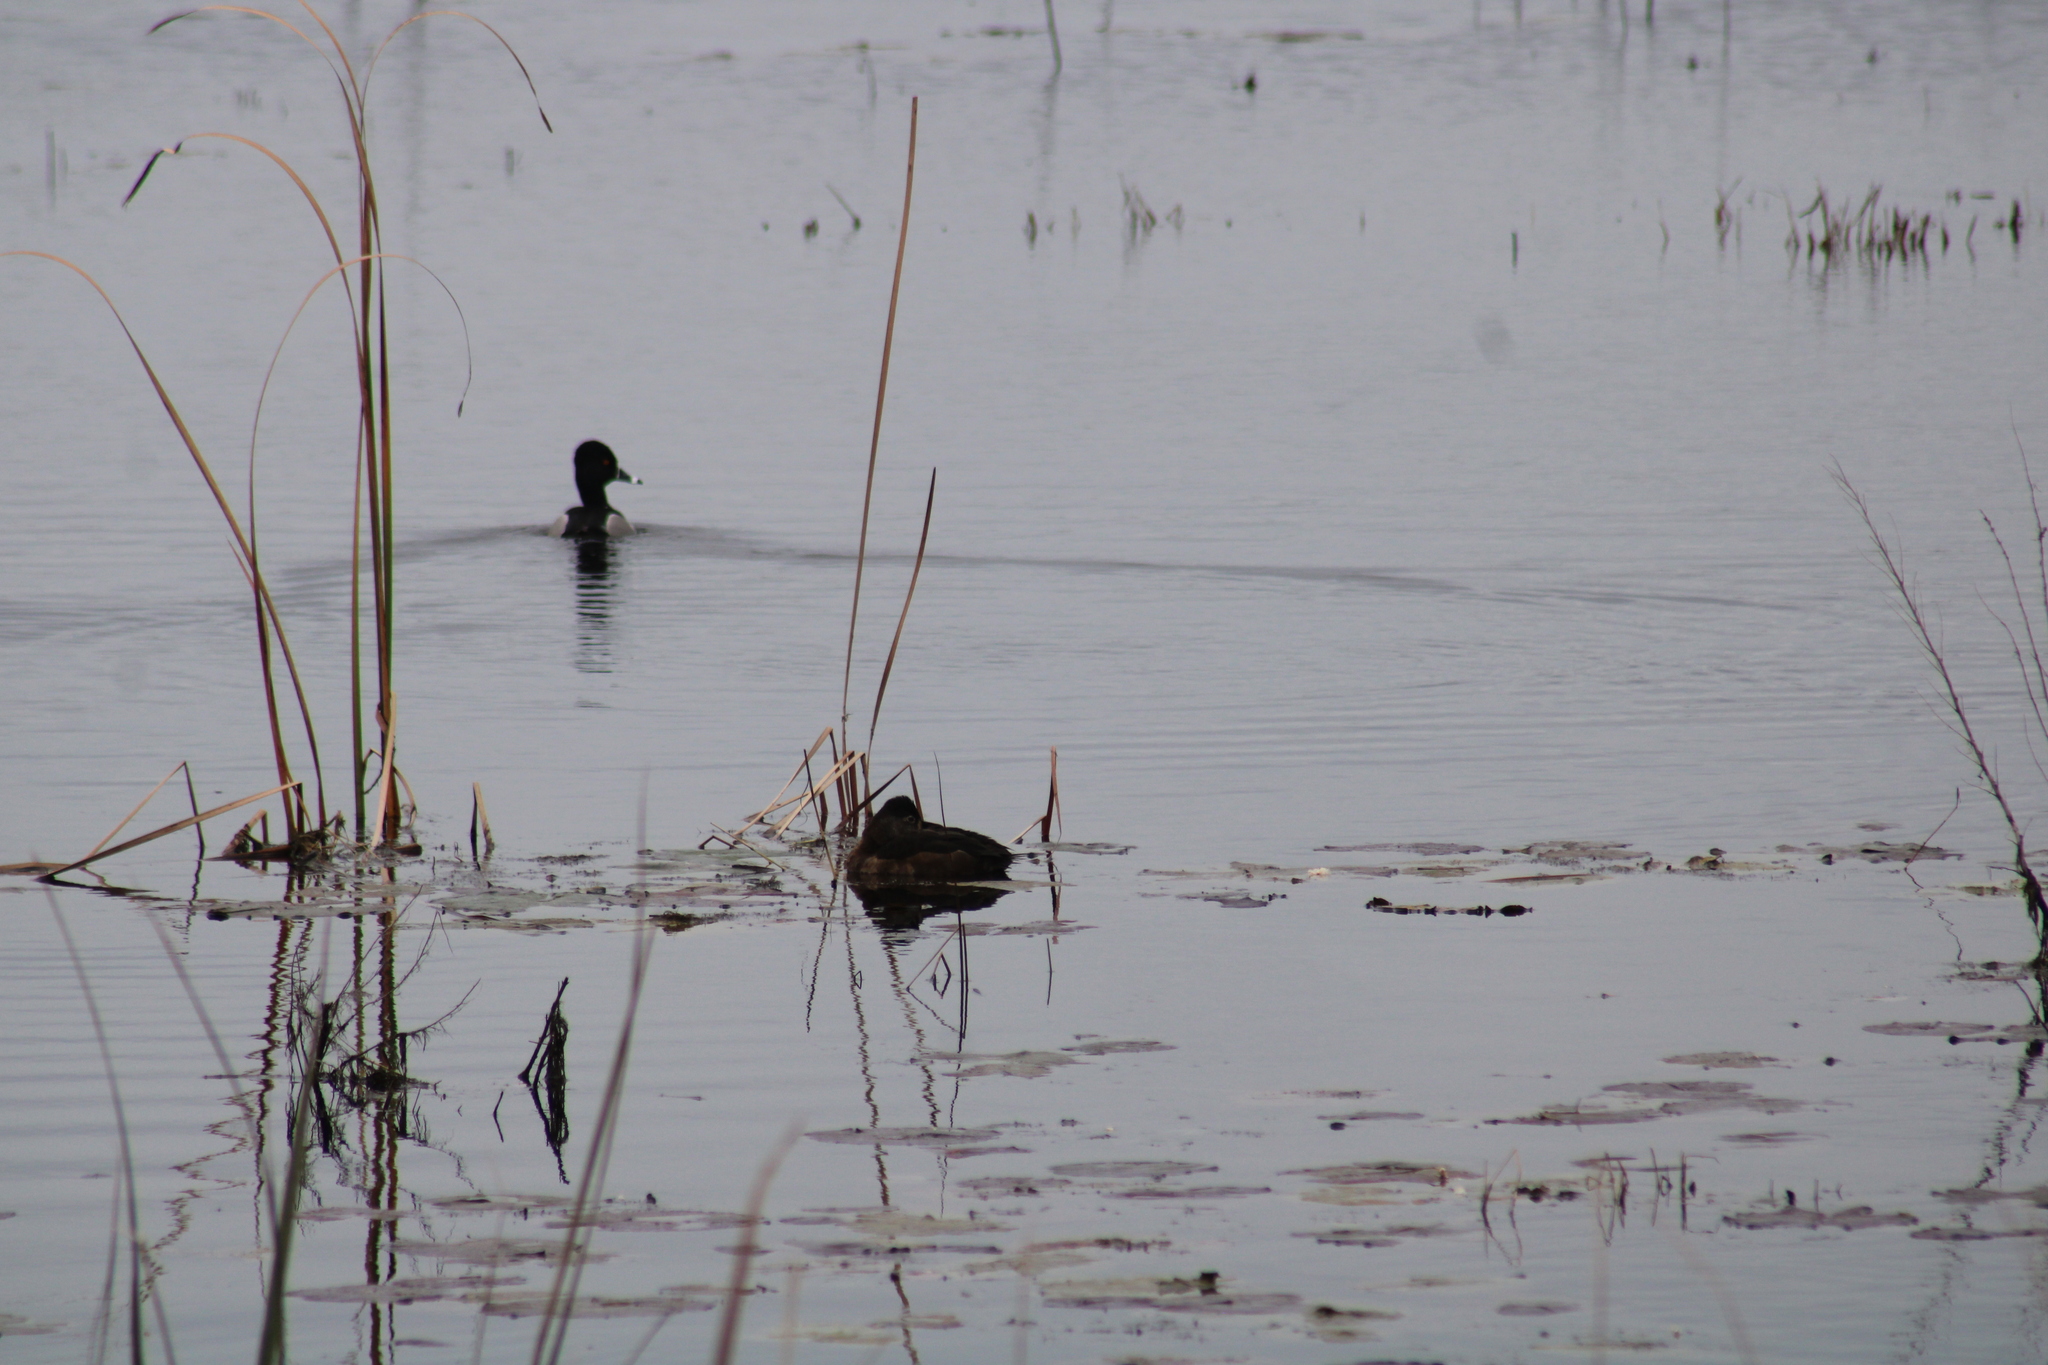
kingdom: Animalia
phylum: Chordata
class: Aves
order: Anseriformes
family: Anatidae
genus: Aythya
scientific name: Aythya collaris
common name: Ring-necked duck
